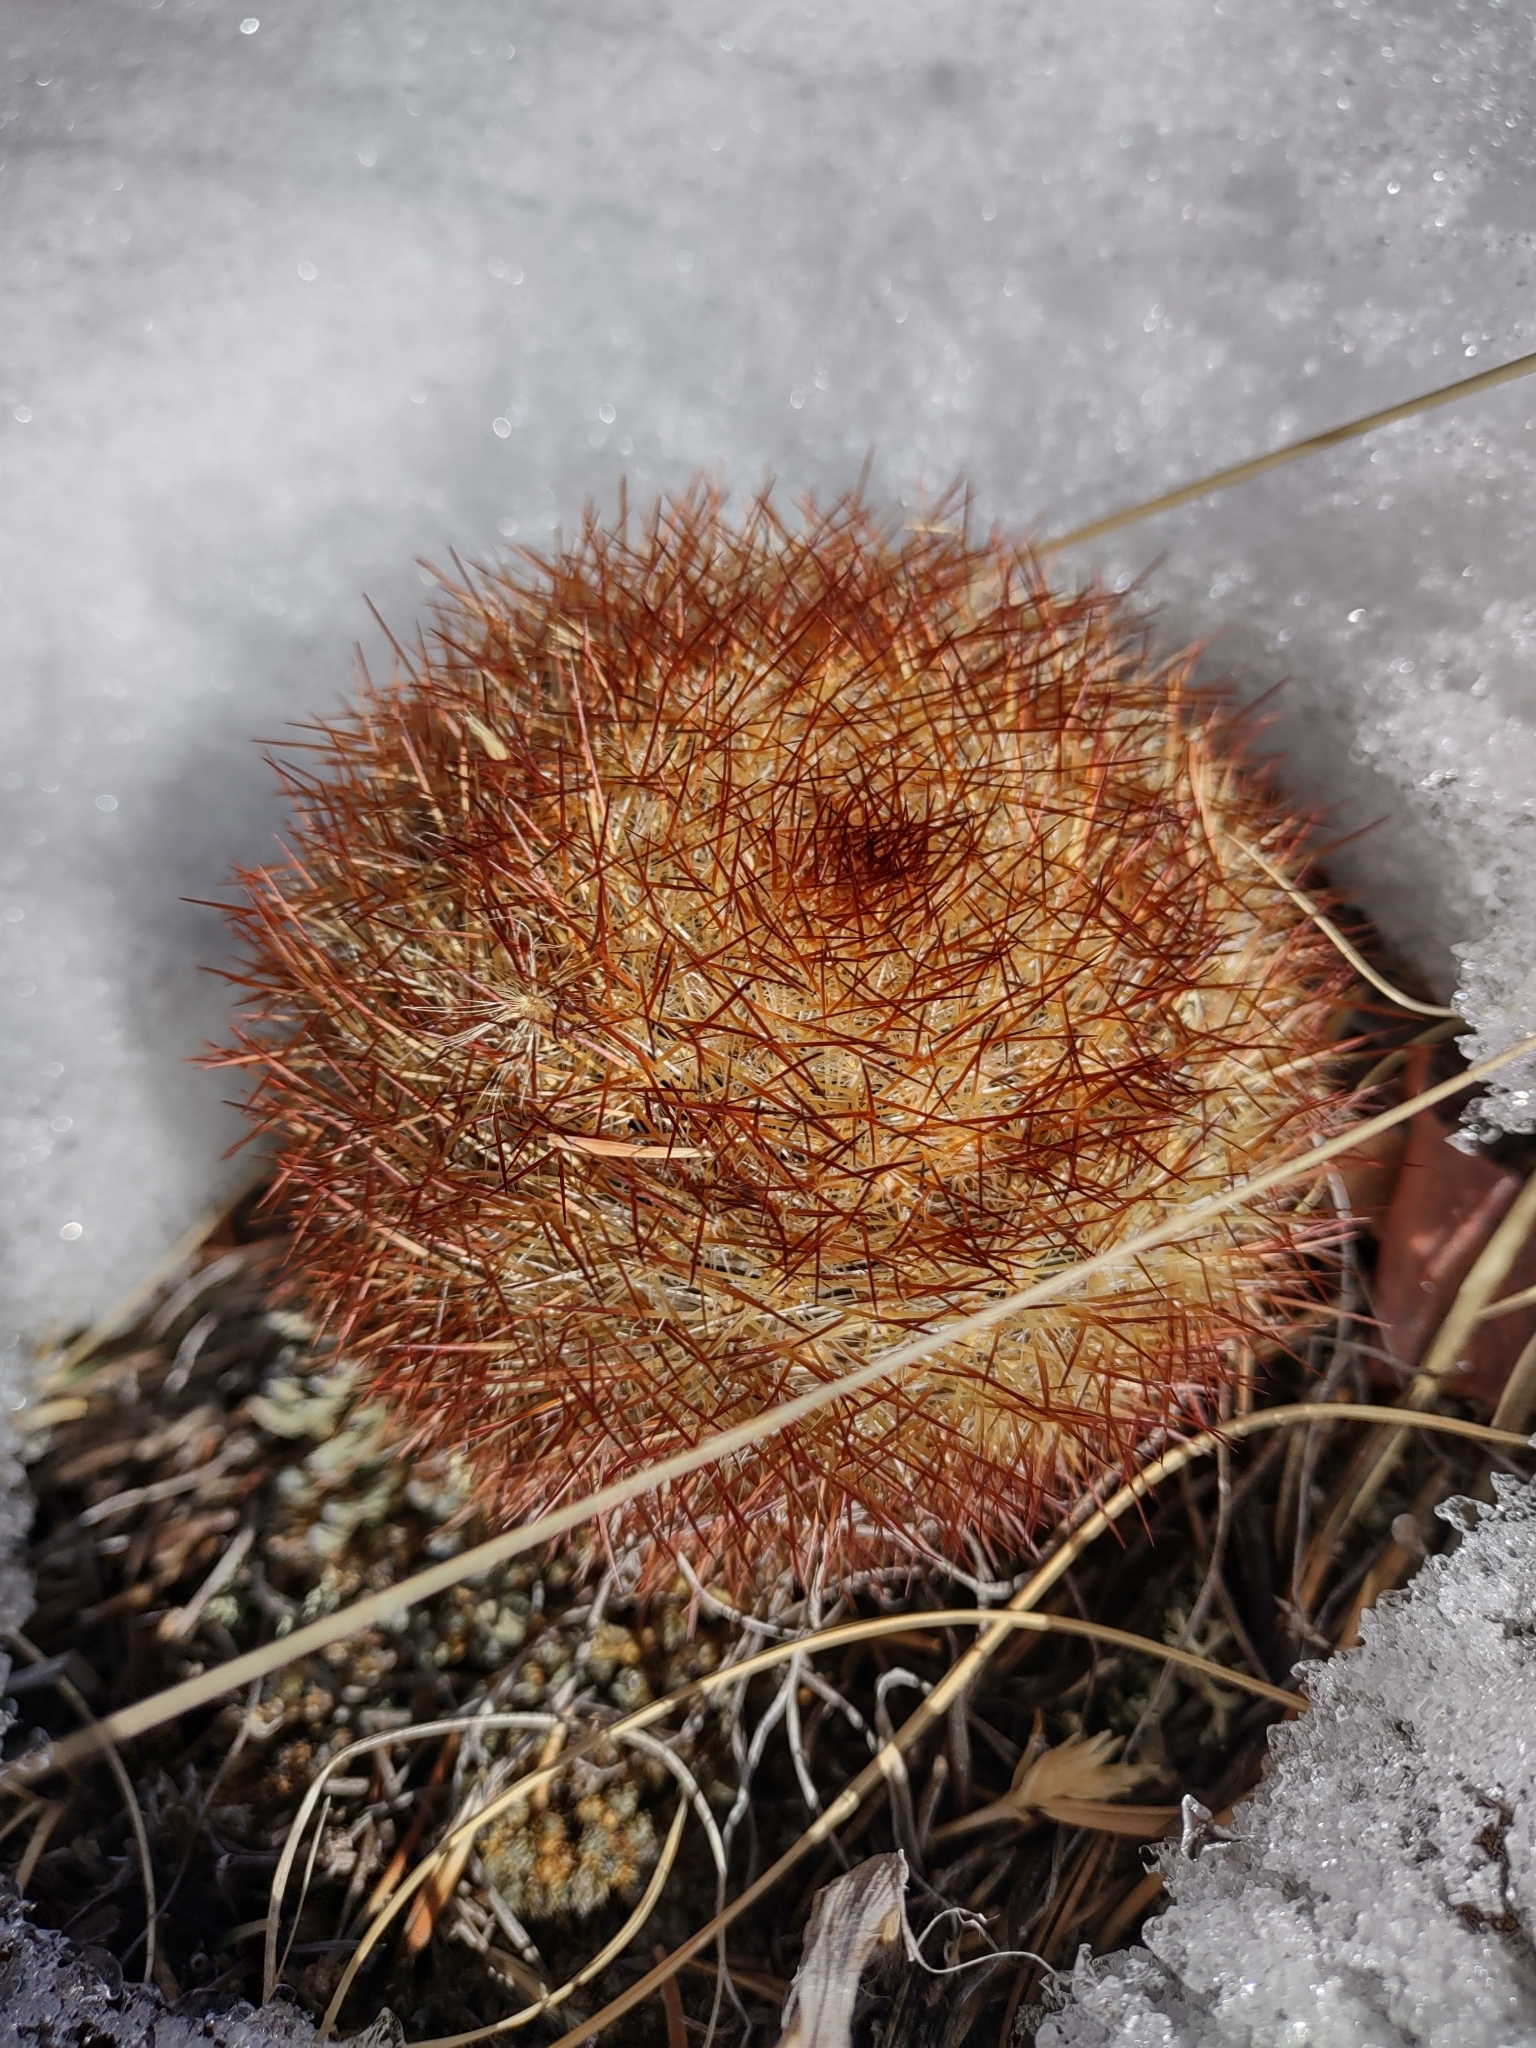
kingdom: Plantae
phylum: Tracheophyta
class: Magnoliopsida
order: Caryophyllales
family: Cactaceae
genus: Pediocactus
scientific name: Pediocactus simpsonii
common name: Simpson's hedgehog cactus
